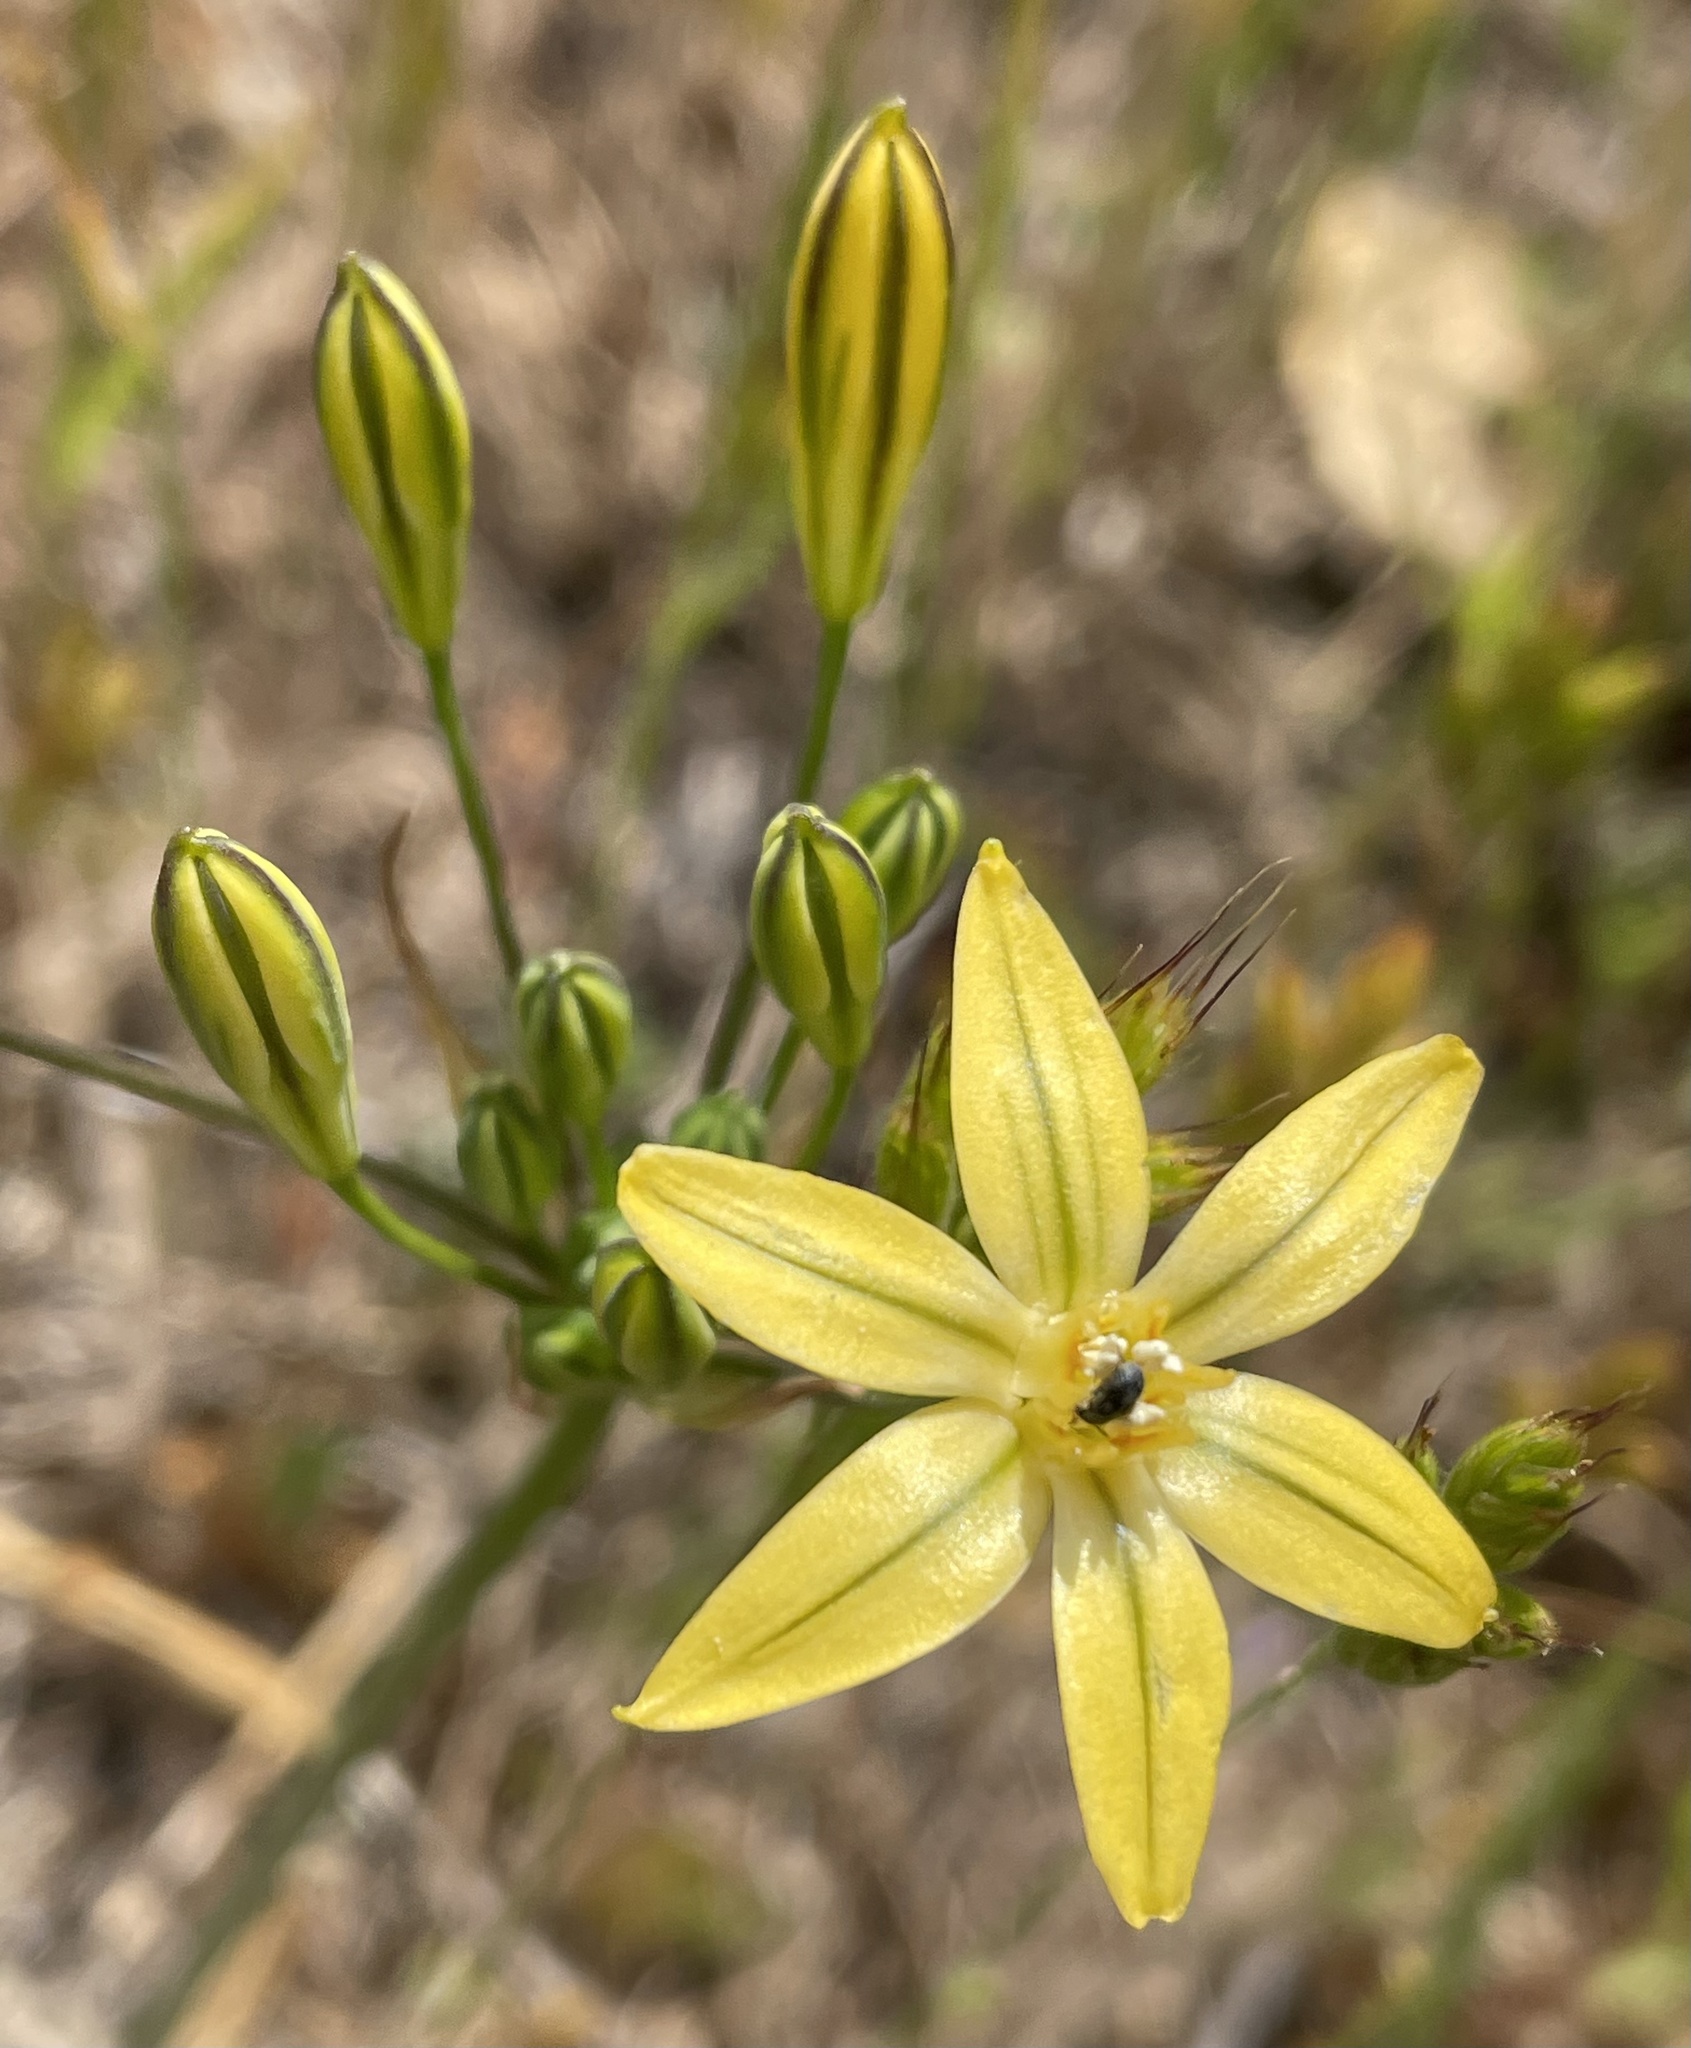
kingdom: Plantae
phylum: Tracheophyta
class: Liliopsida
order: Asparagales
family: Asparagaceae
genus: Triteleia
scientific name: Triteleia ixioides
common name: Yellow-brodiaea
